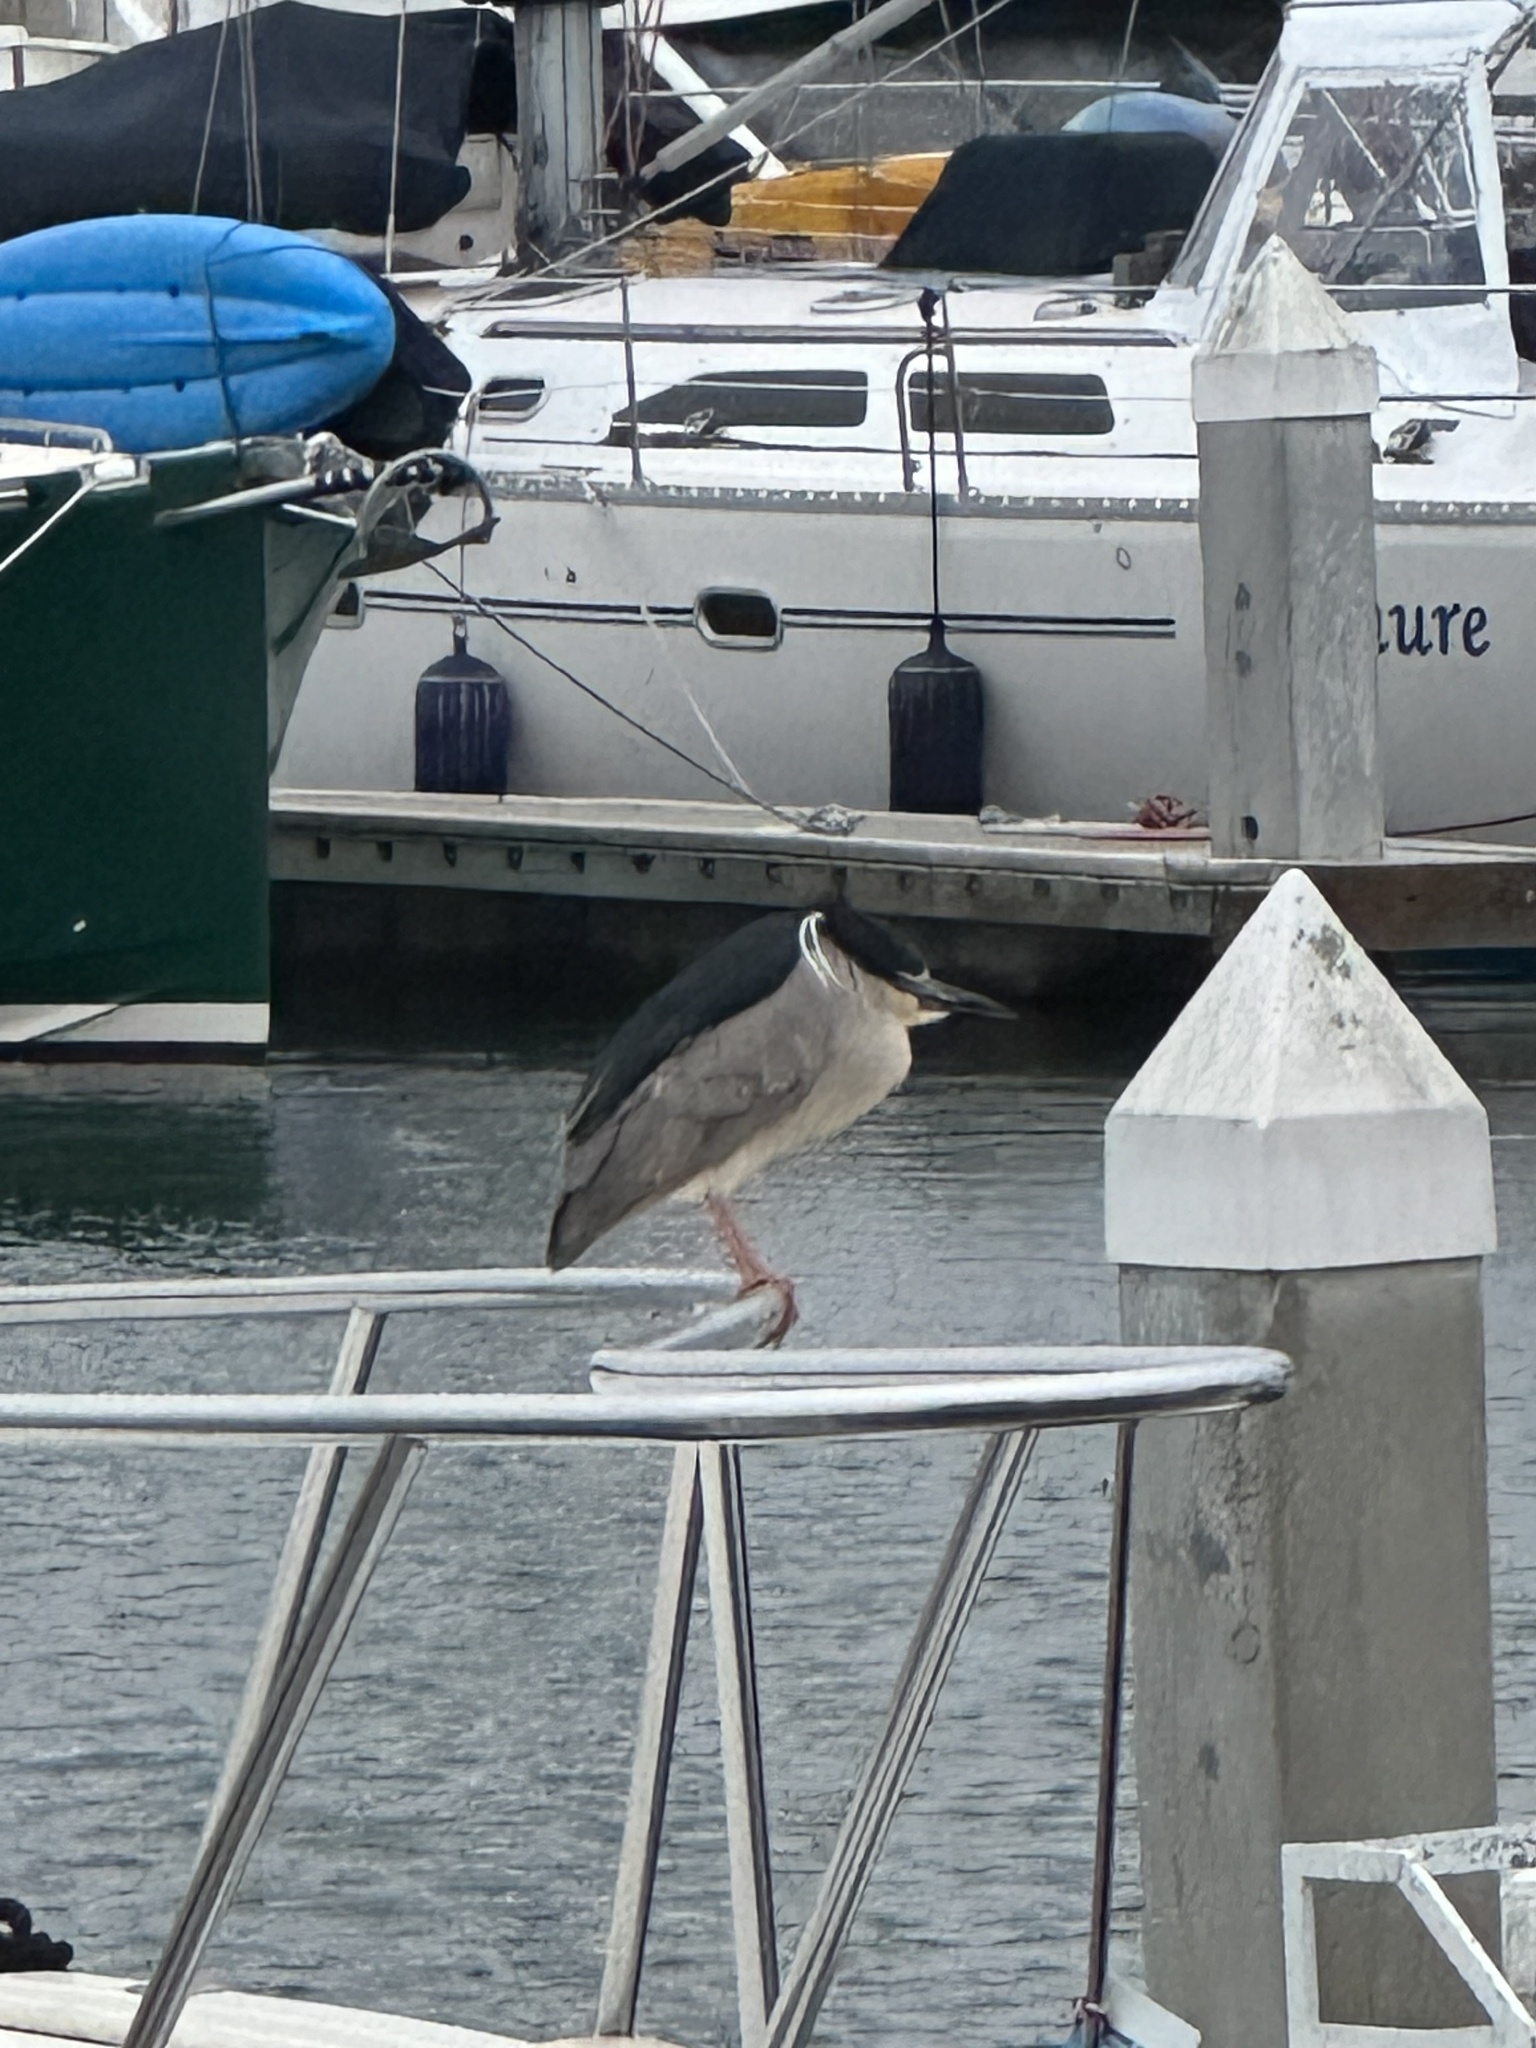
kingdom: Animalia
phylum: Chordata
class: Aves
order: Pelecaniformes
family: Ardeidae
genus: Nycticorax
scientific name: Nycticorax nycticorax
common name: Black-crowned night heron
